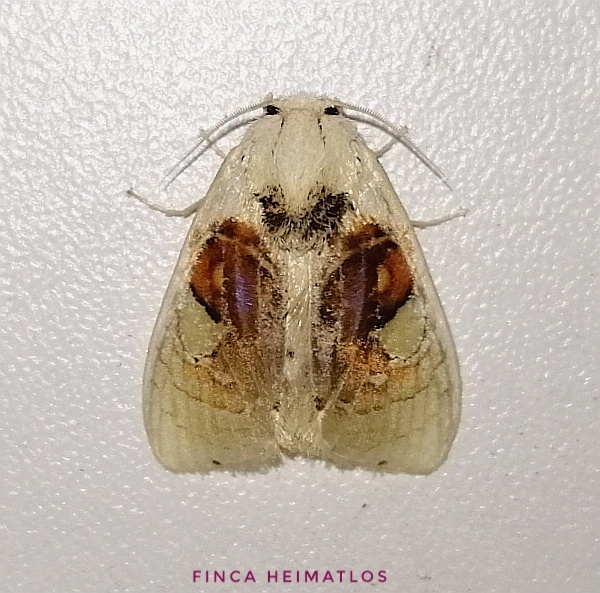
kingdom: Animalia
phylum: Arthropoda
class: Insecta
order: Lepidoptera
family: Psychidae
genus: Arrhenophanes
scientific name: Arrhenophanes perspicilla
